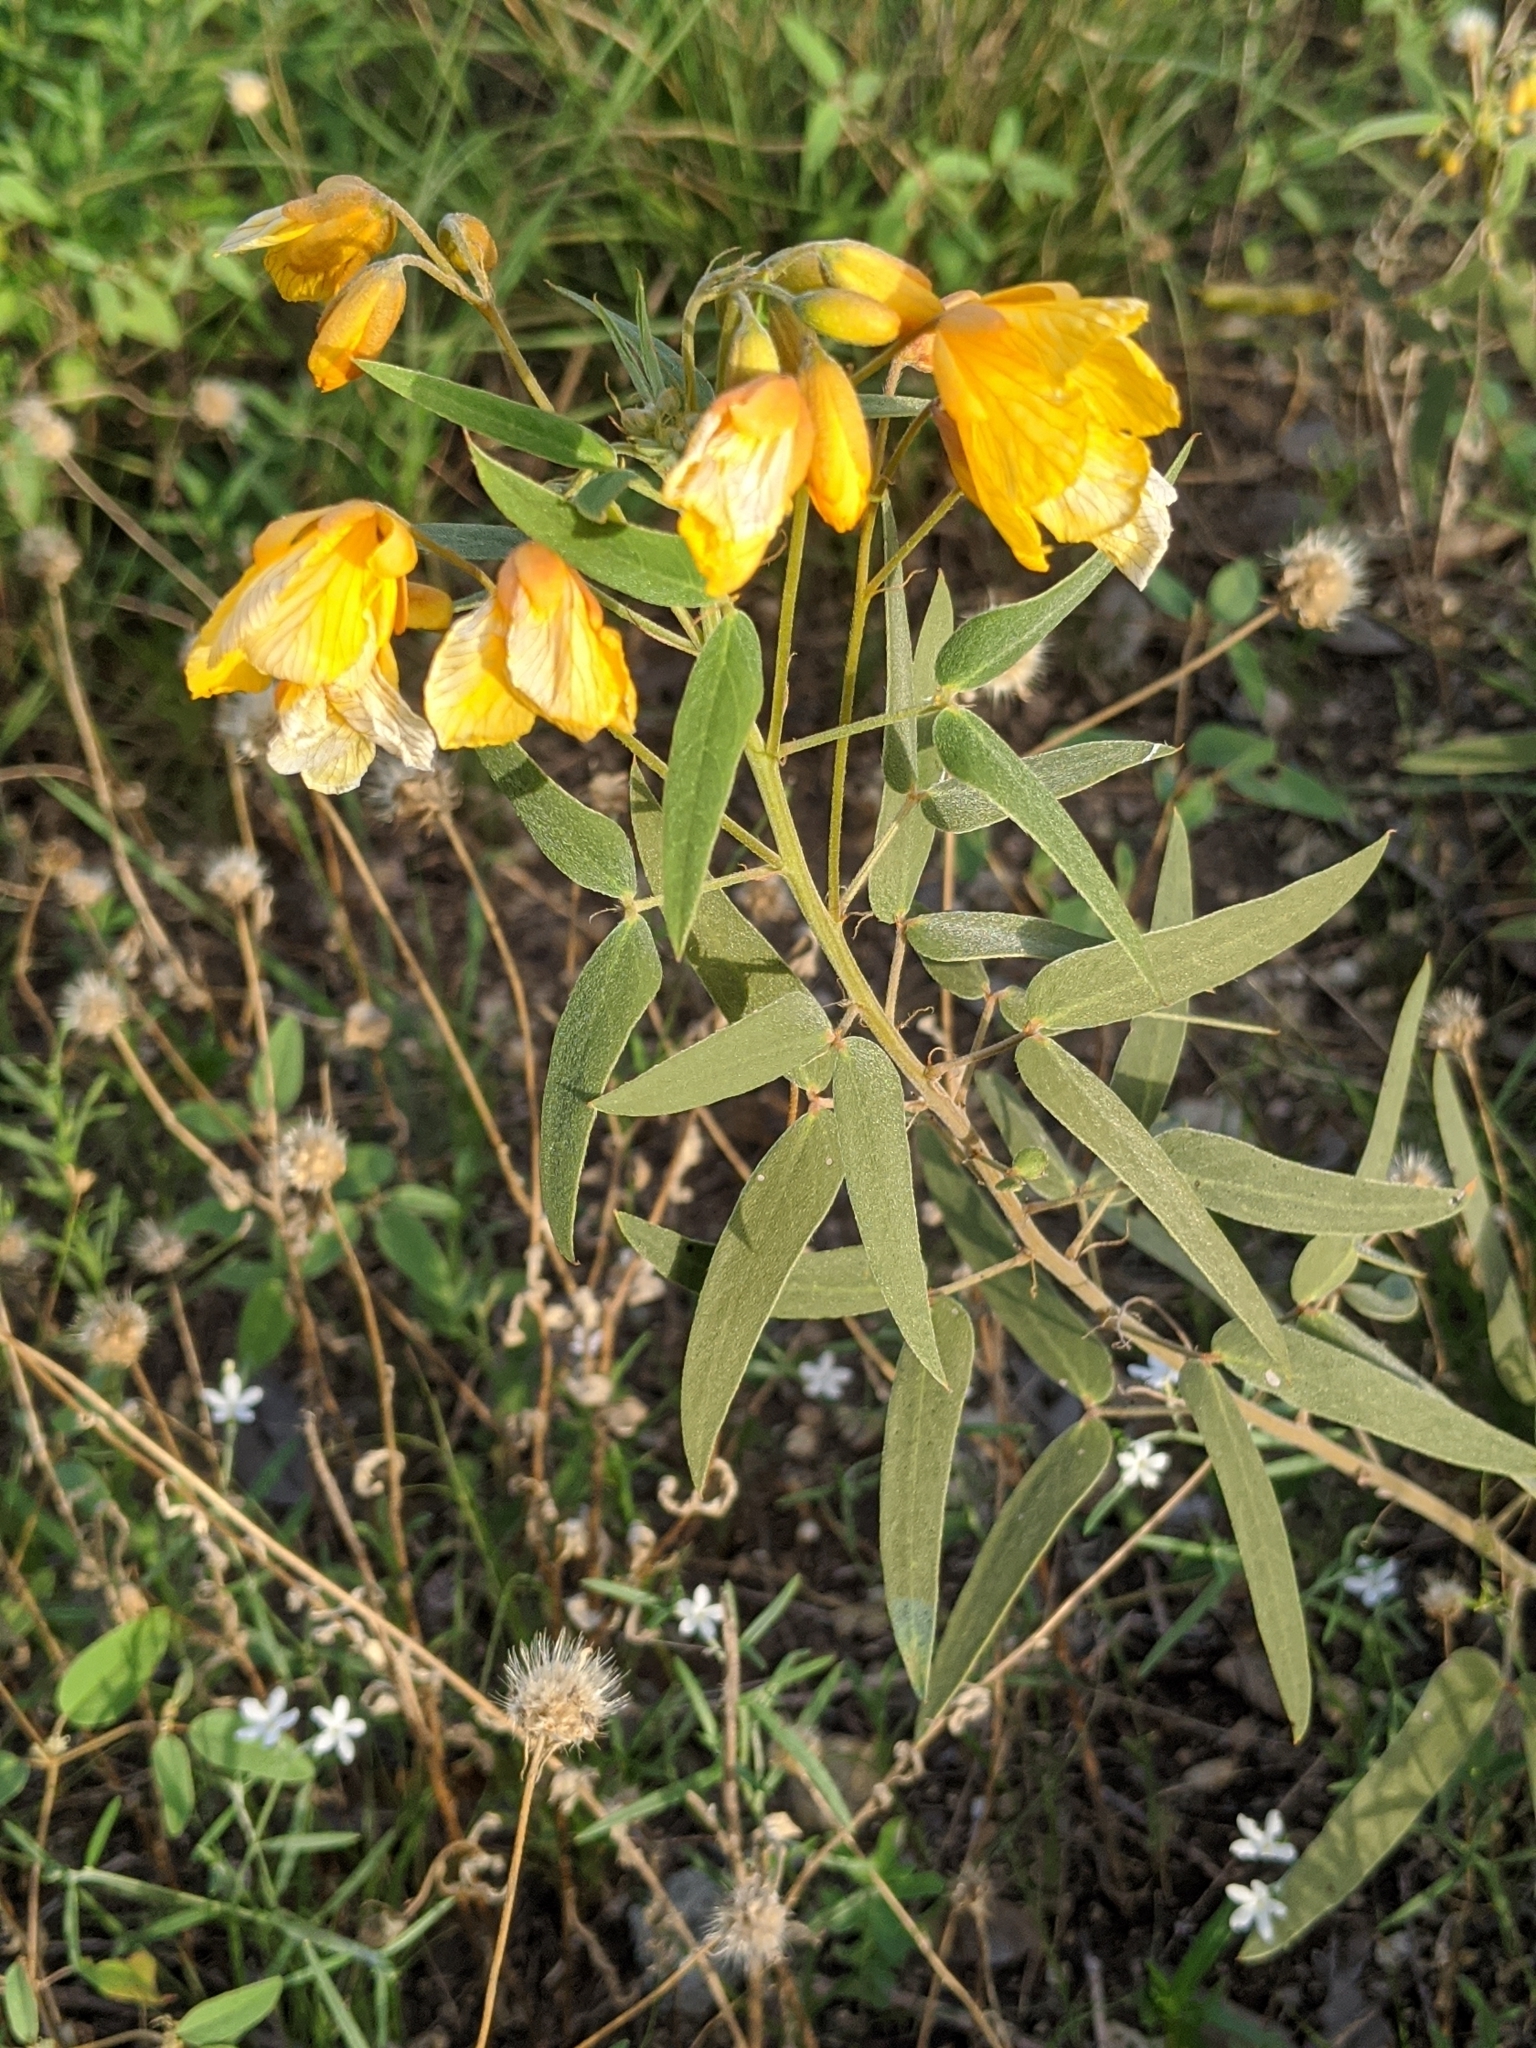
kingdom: Plantae
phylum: Tracheophyta
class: Magnoliopsida
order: Fabales
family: Fabaceae
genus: Senna
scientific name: Senna roemeriana
